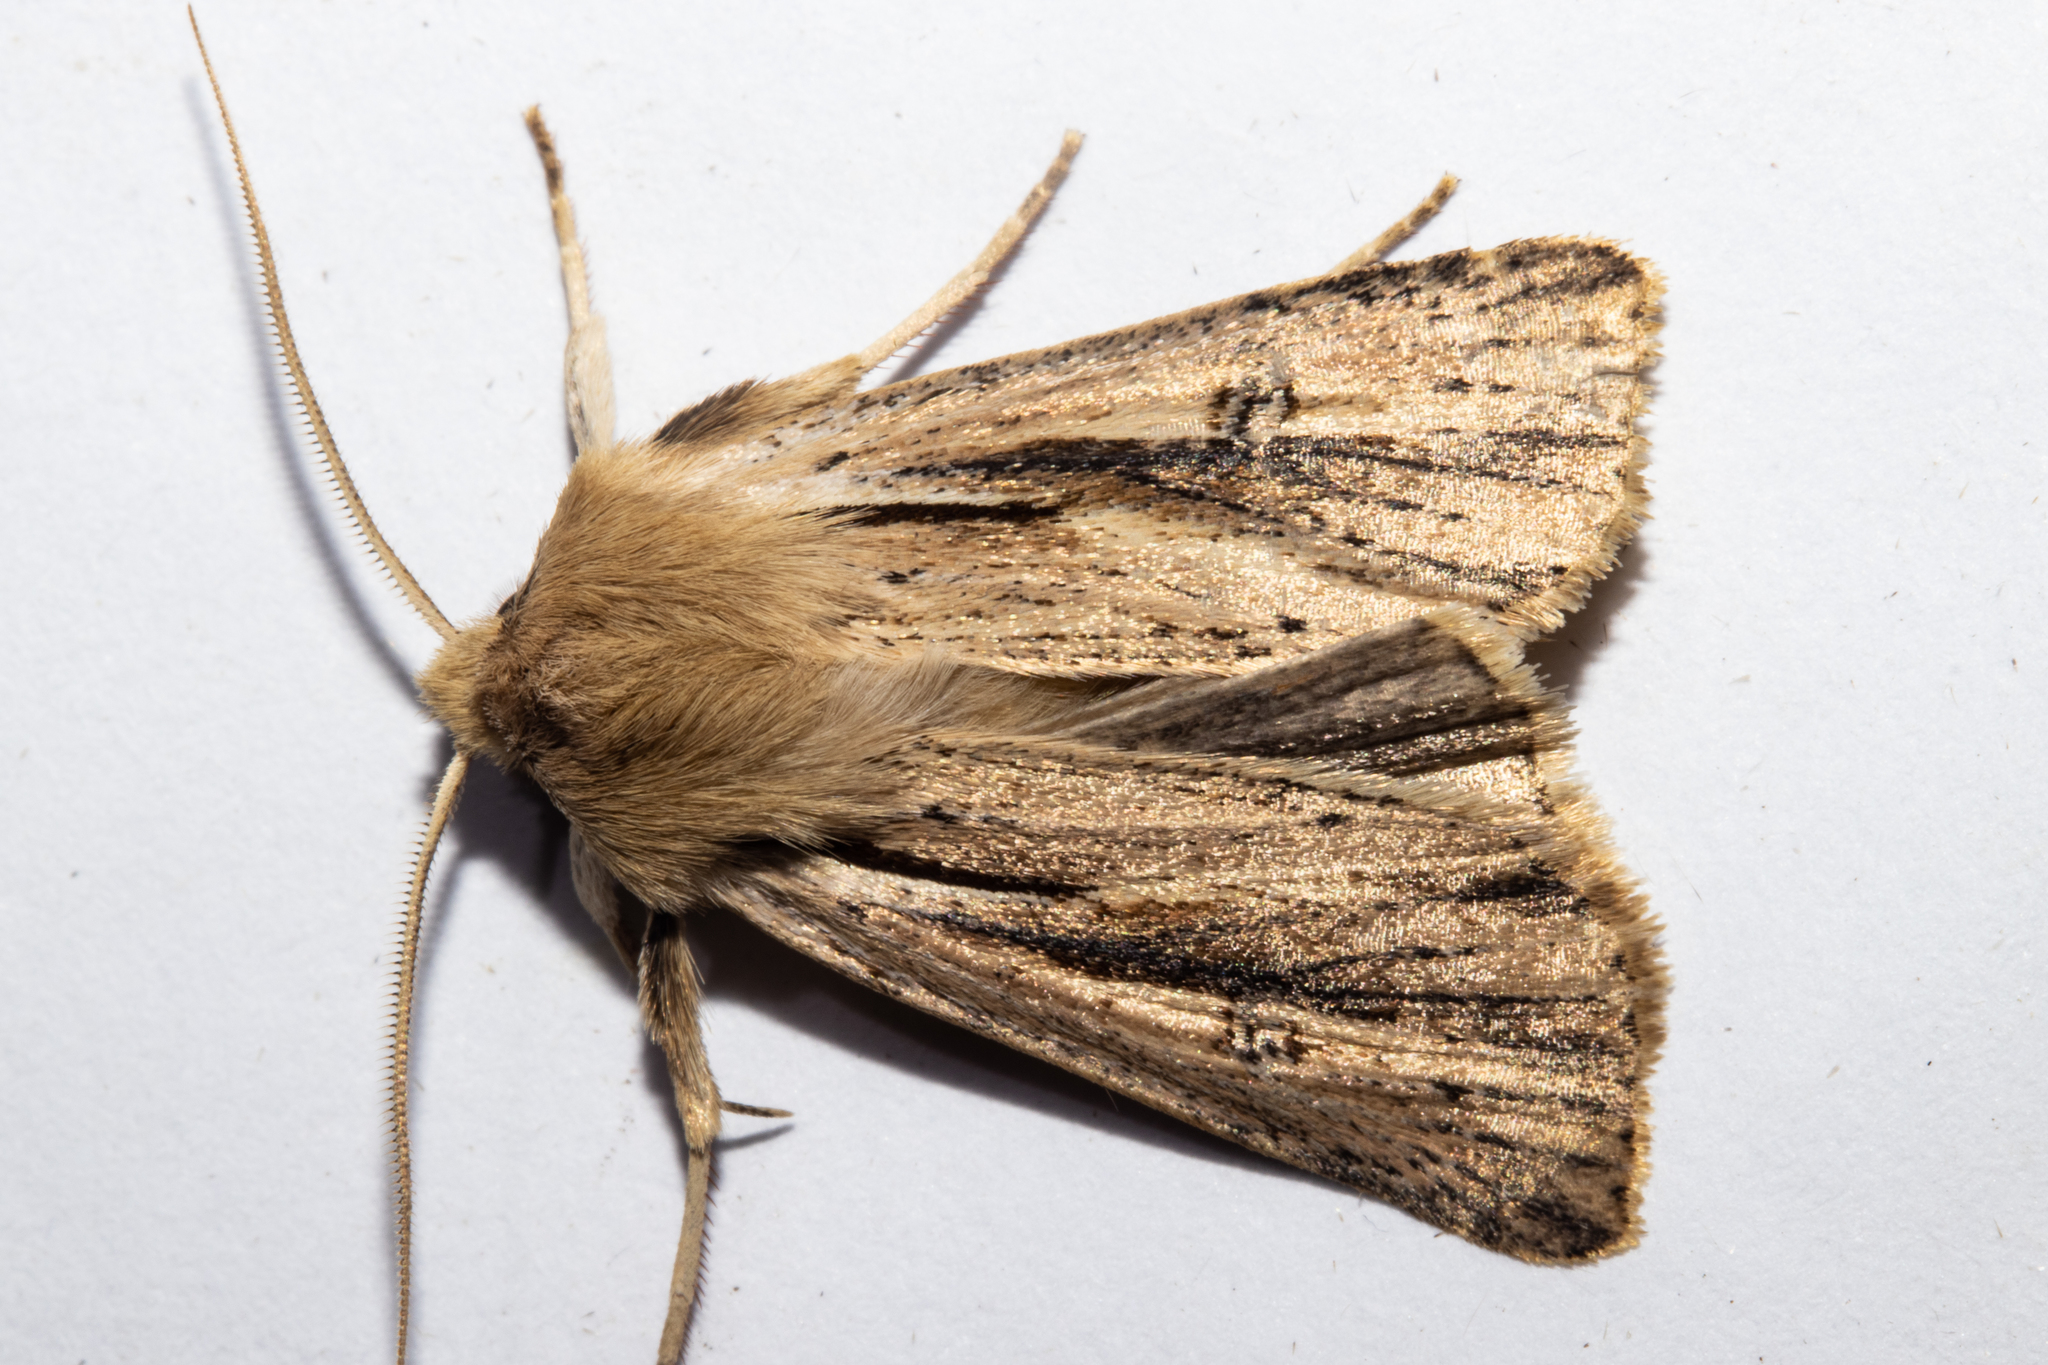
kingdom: Animalia
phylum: Arthropoda
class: Insecta
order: Lepidoptera
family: Noctuidae
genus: Ichneutica
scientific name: Ichneutica propria
